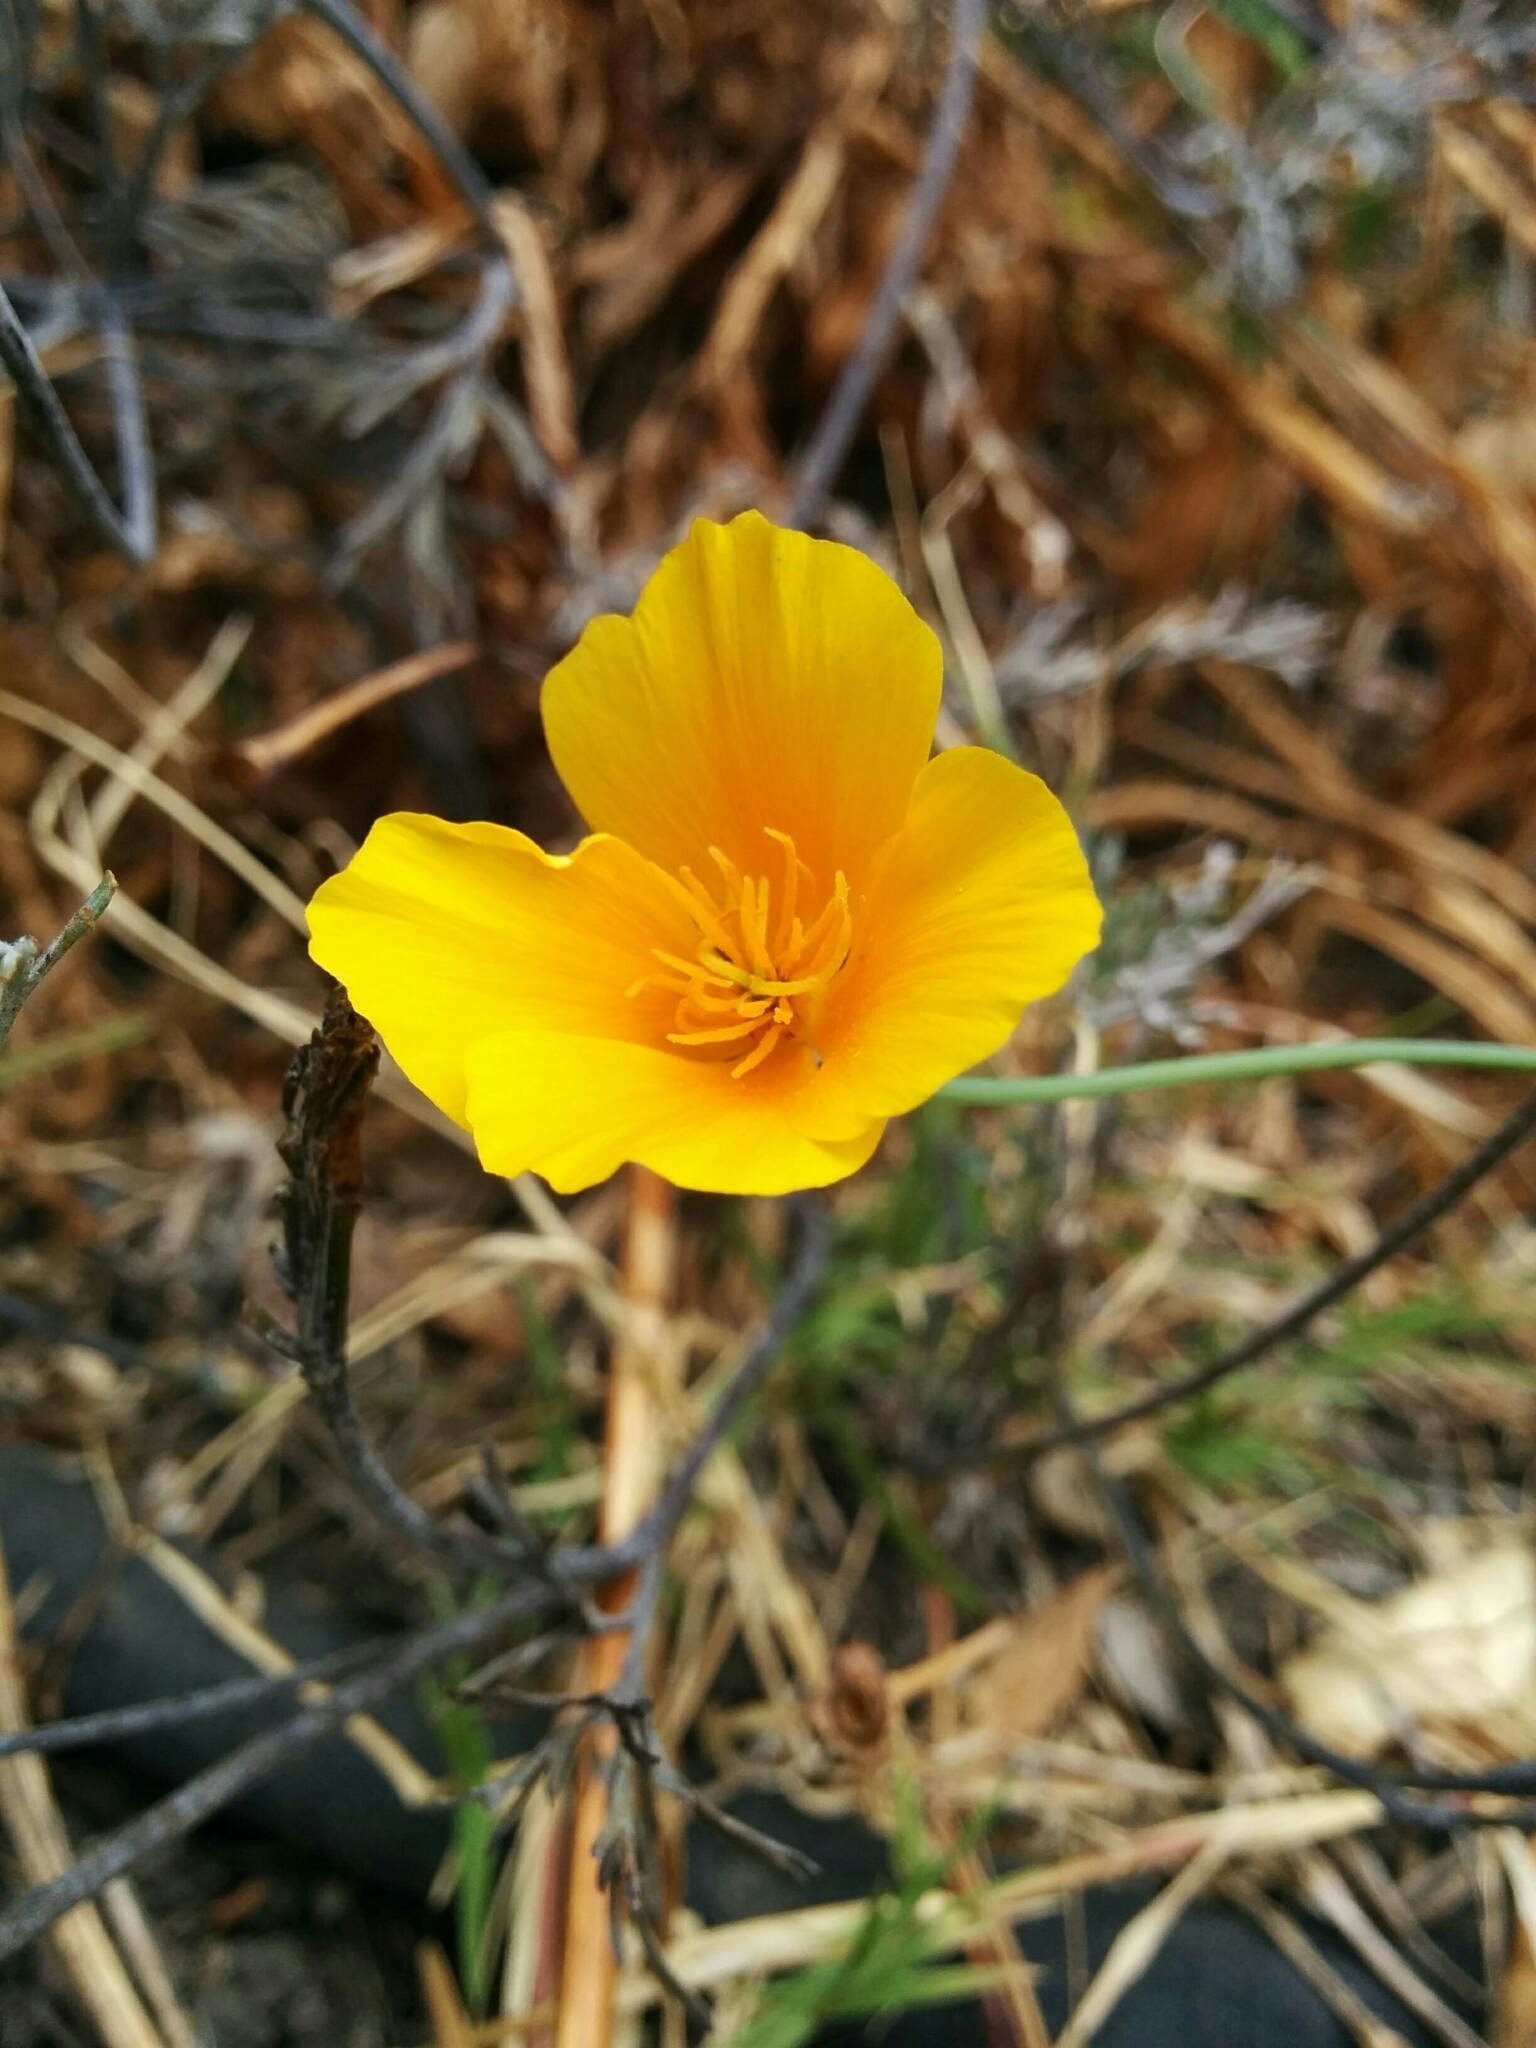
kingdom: Plantae
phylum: Tracheophyta
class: Magnoliopsida
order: Ranunculales
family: Papaveraceae
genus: Eschscholzia
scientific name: Eschscholzia californica
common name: California poppy
